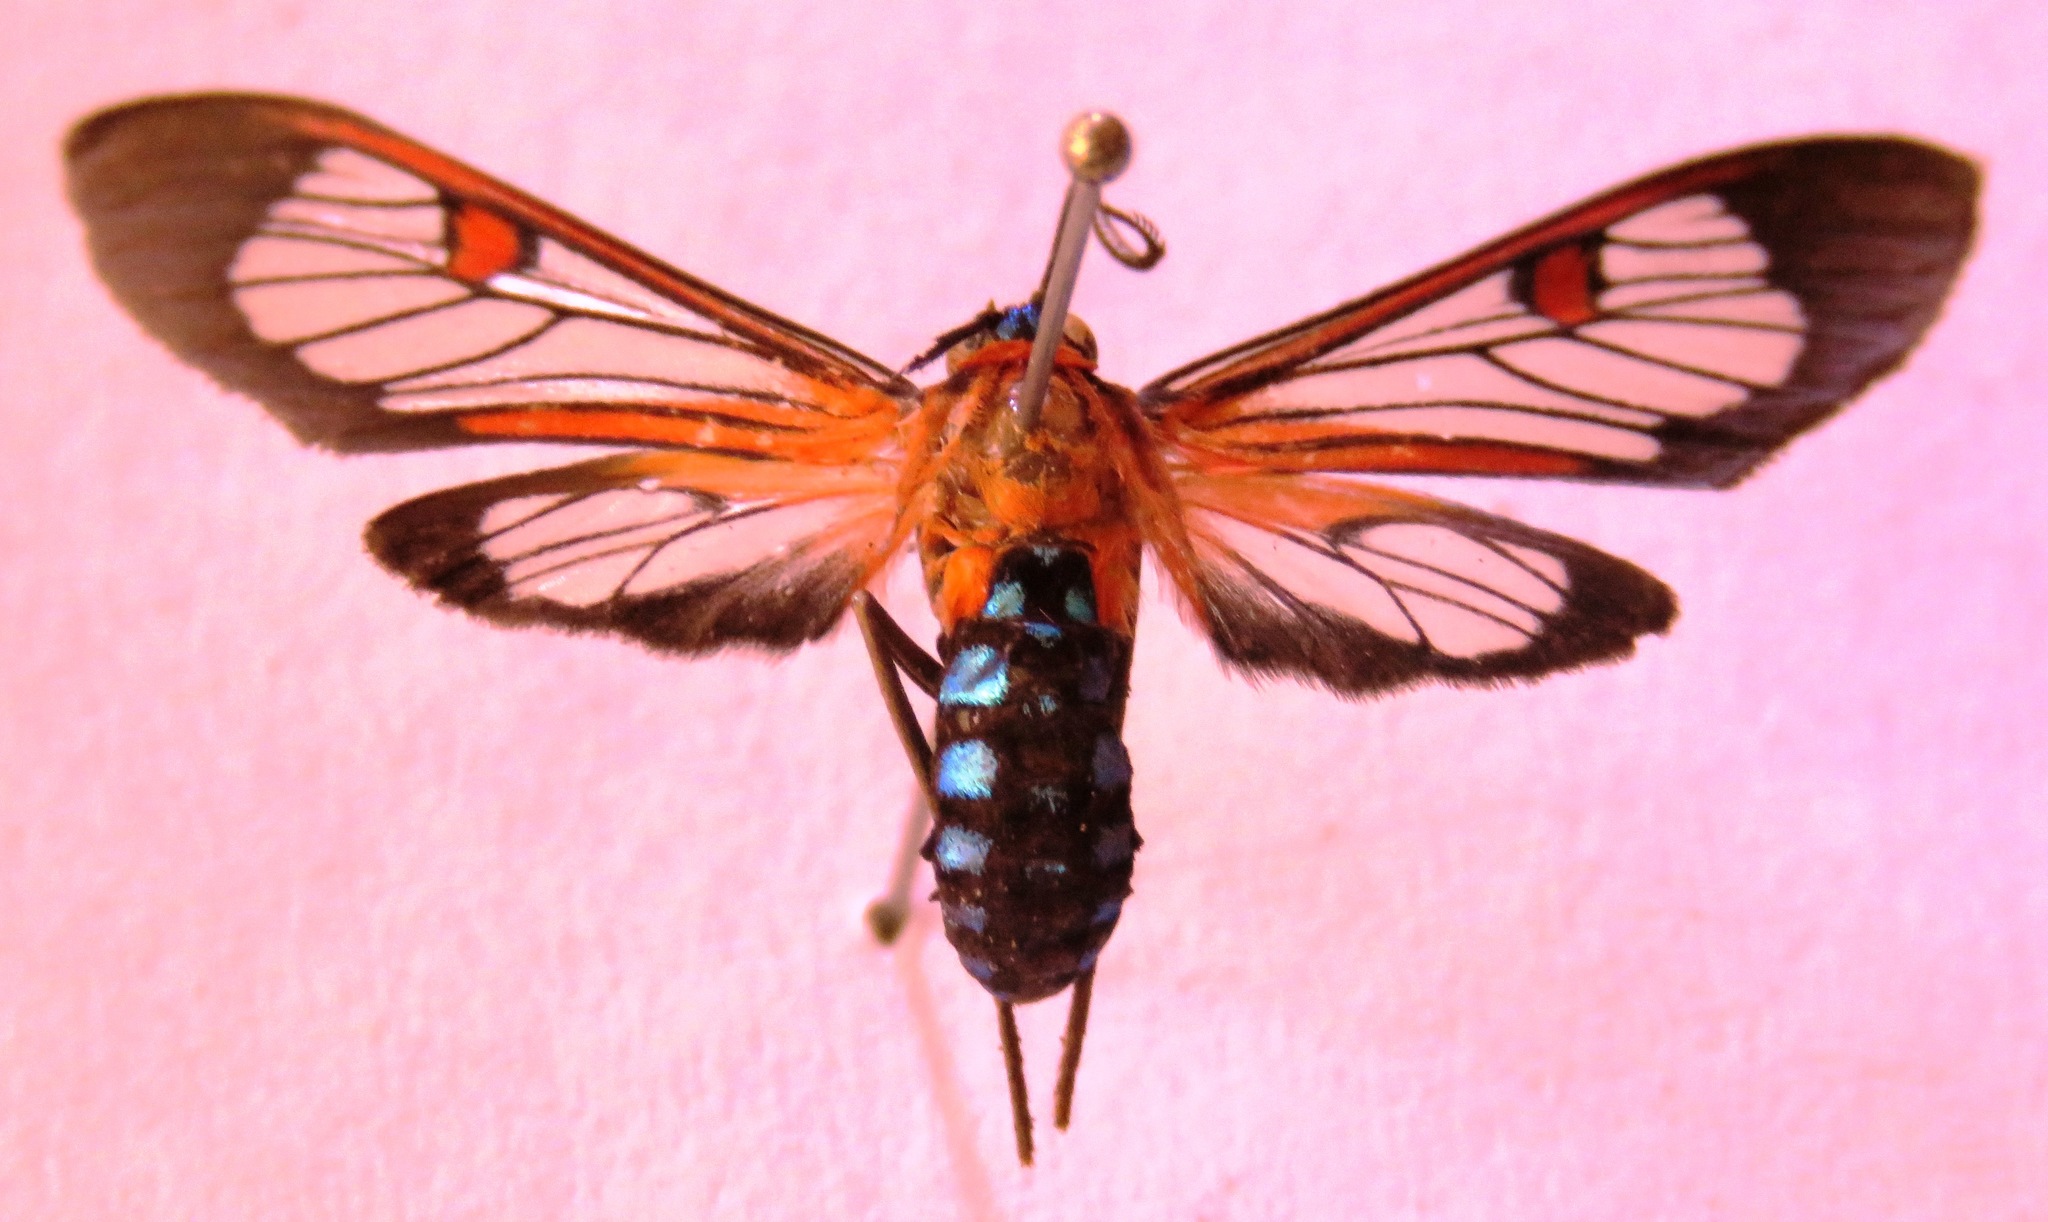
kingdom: Animalia
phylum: Arthropoda
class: Insecta
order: Lepidoptera
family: Erebidae
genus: Lepidoneiva
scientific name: Lepidoneiva teuthras
